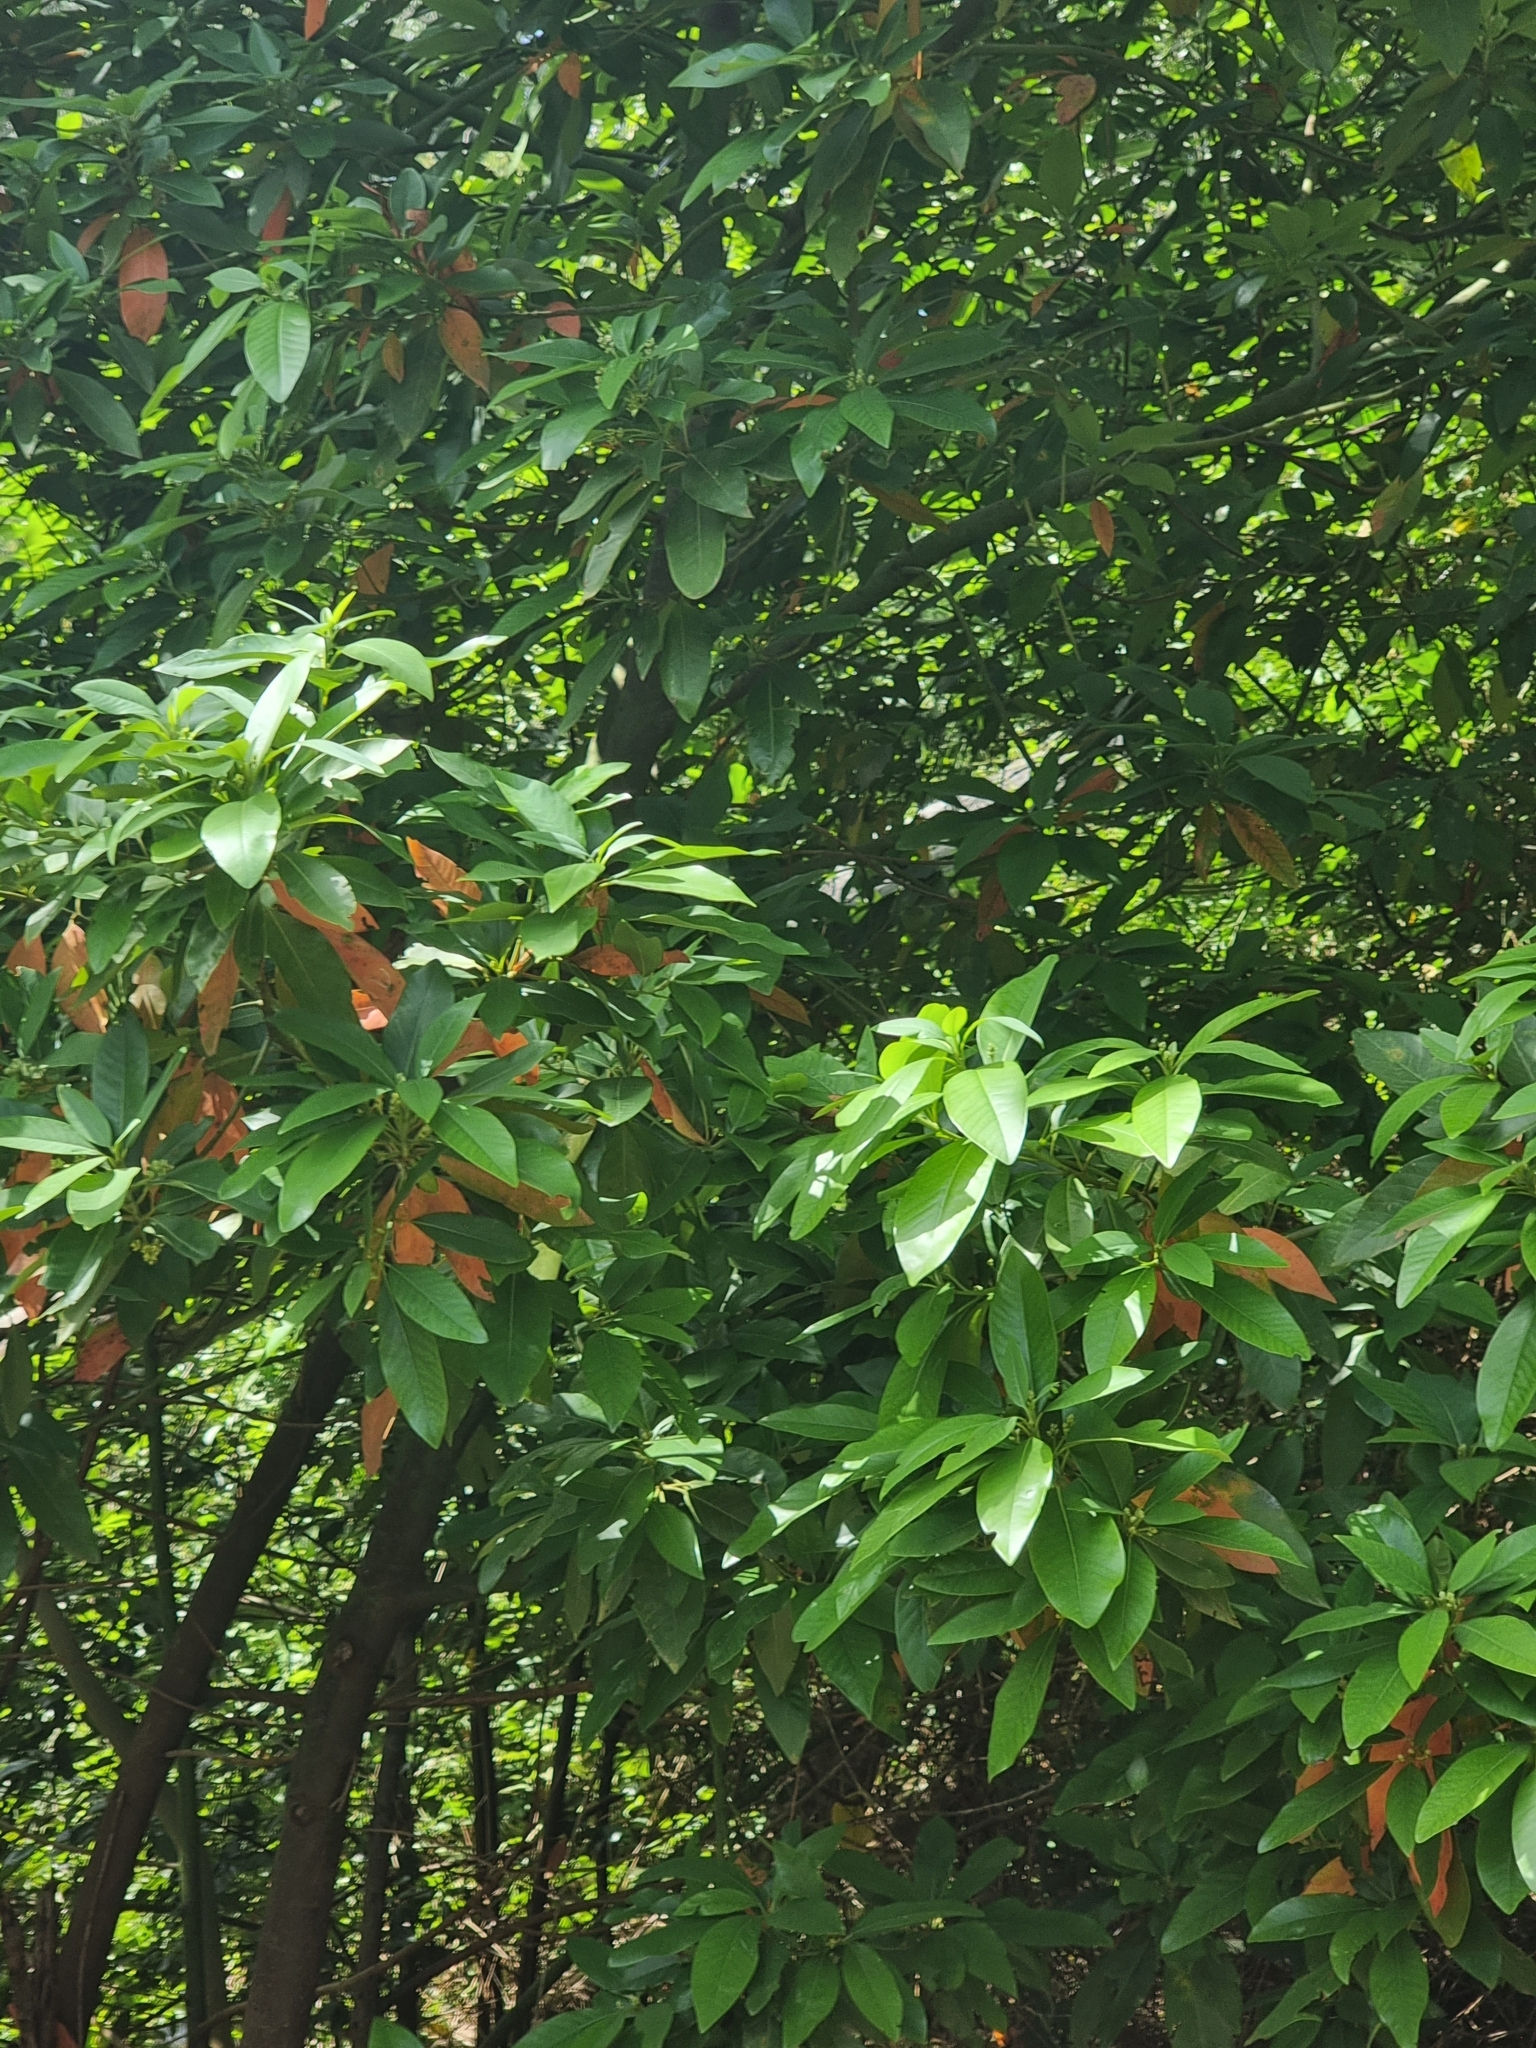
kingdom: Plantae
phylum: Tracheophyta
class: Magnoliopsida
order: Laurales
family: Lauraceae
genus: Persea
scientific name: Persea indica
